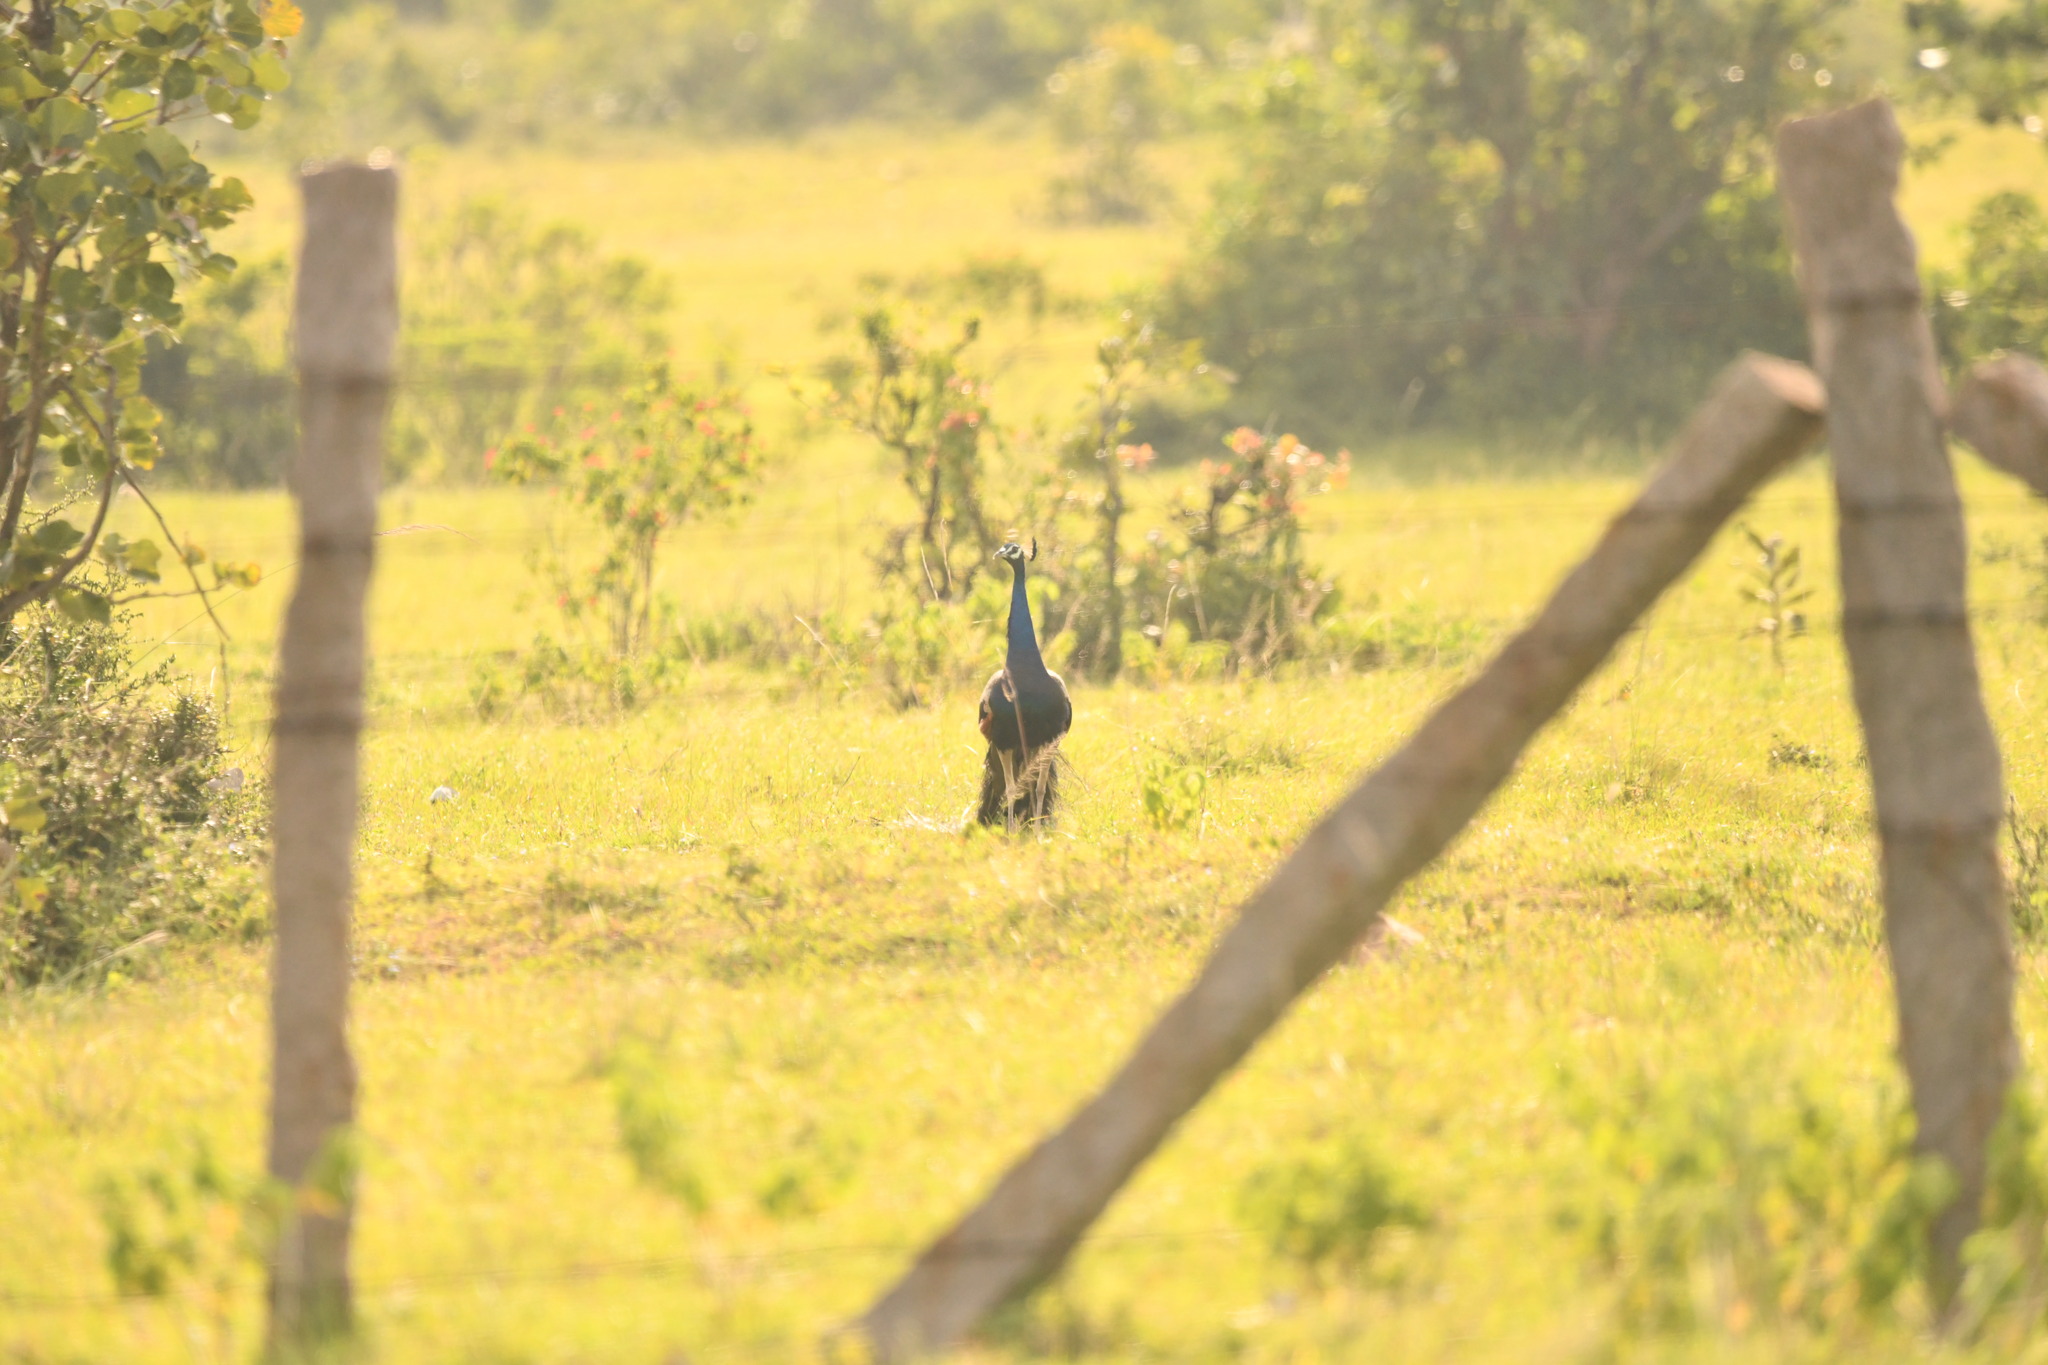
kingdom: Animalia
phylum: Chordata
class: Aves
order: Galliformes
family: Phasianidae
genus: Pavo
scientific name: Pavo cristatus
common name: Indian peafowl
